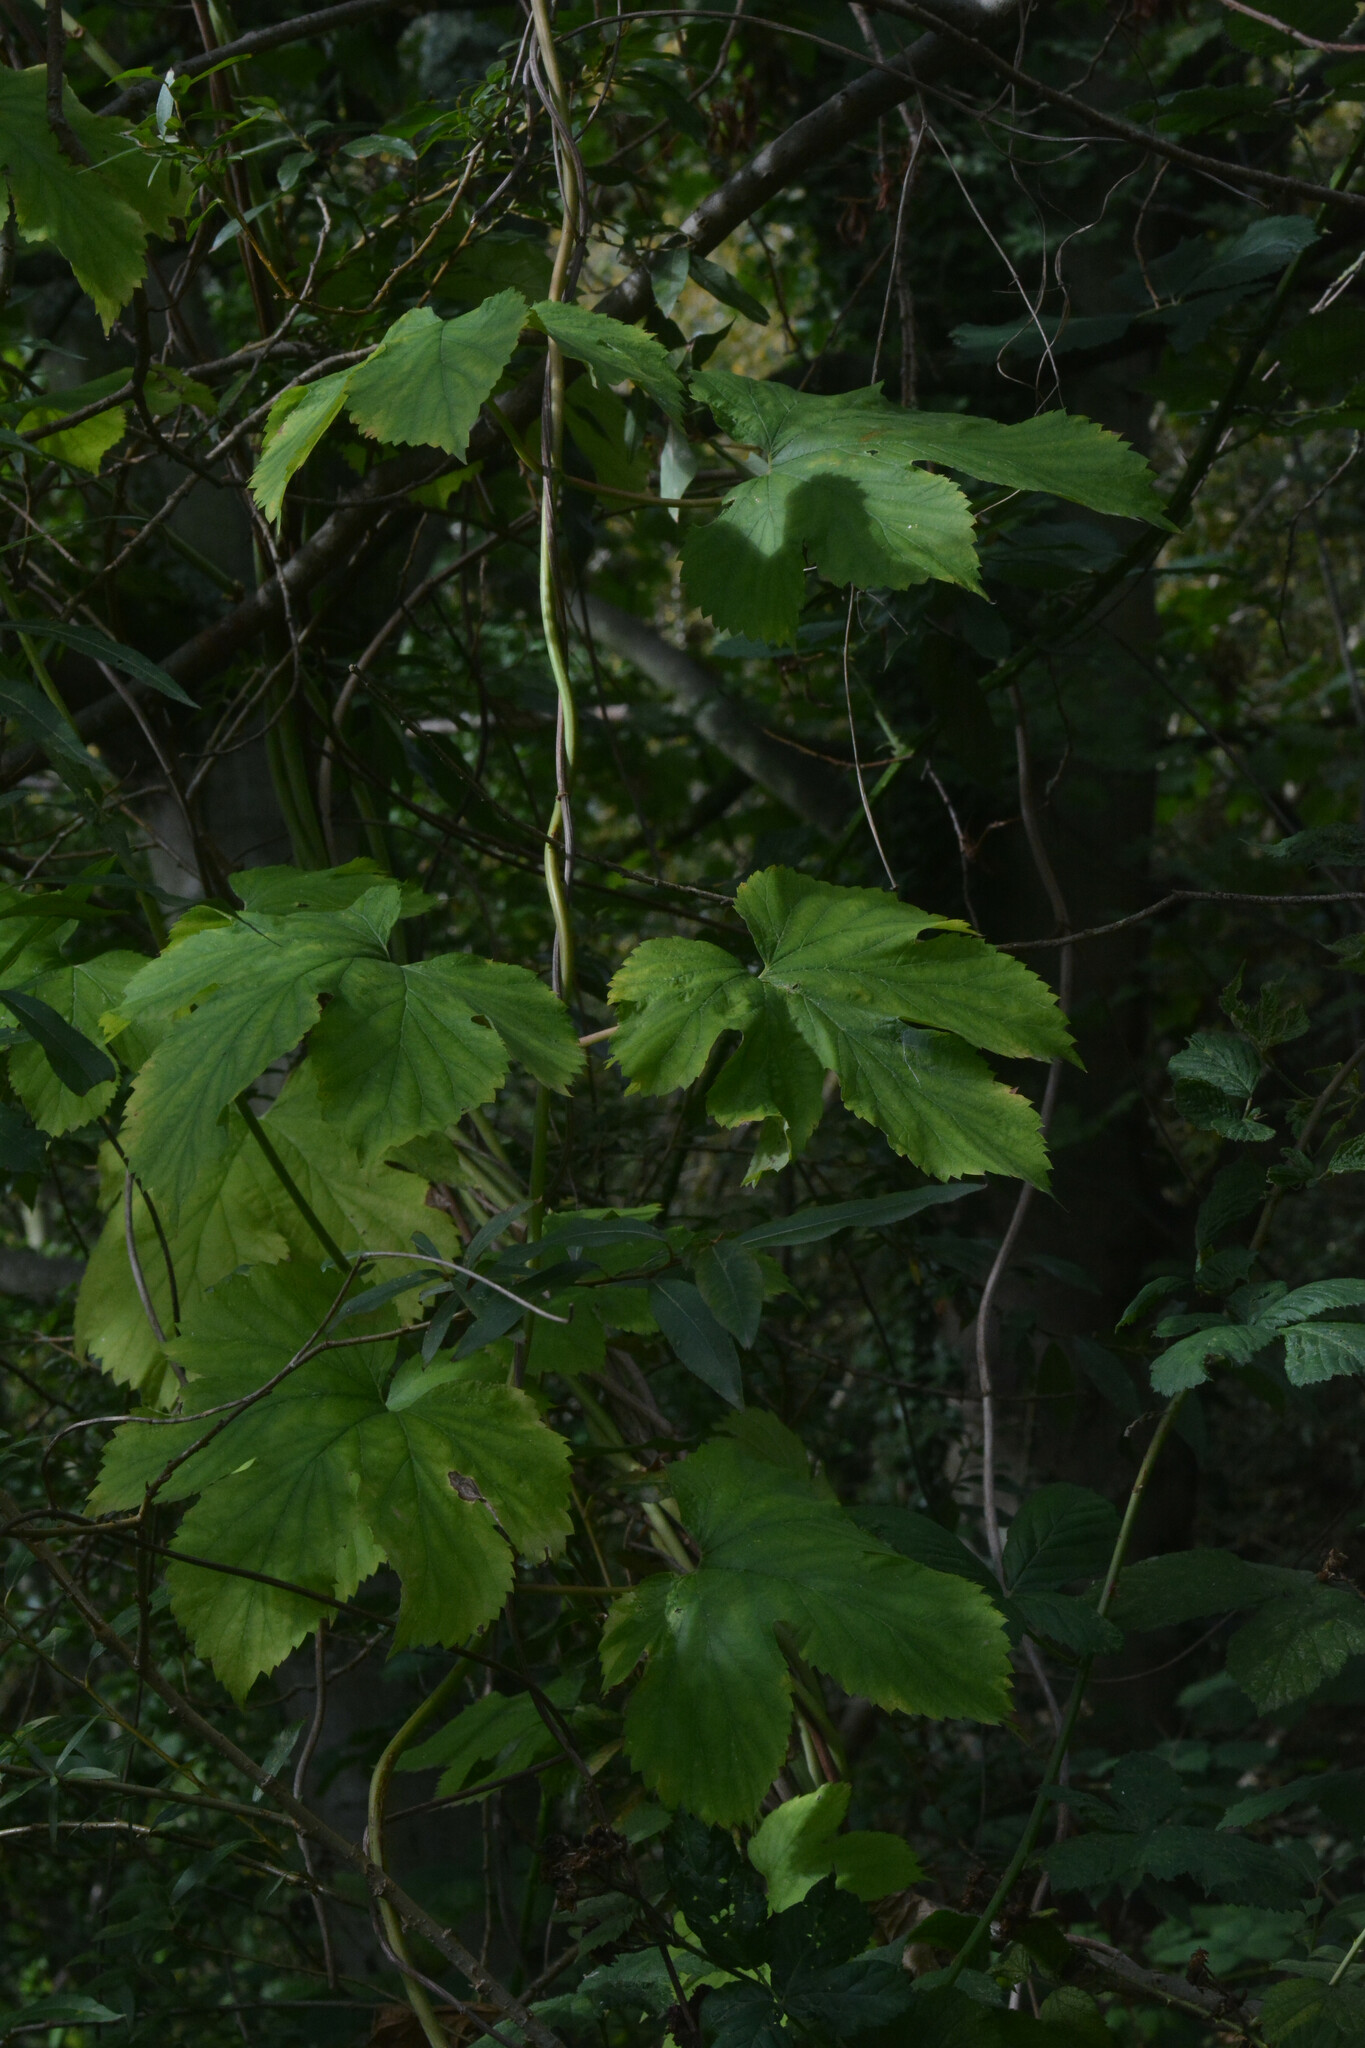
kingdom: Plantae
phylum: Tracheophyta
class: Magnoliopsida
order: Rosales
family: Cannabaceae
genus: Humulus
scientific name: Humulus lupulus
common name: Hop
